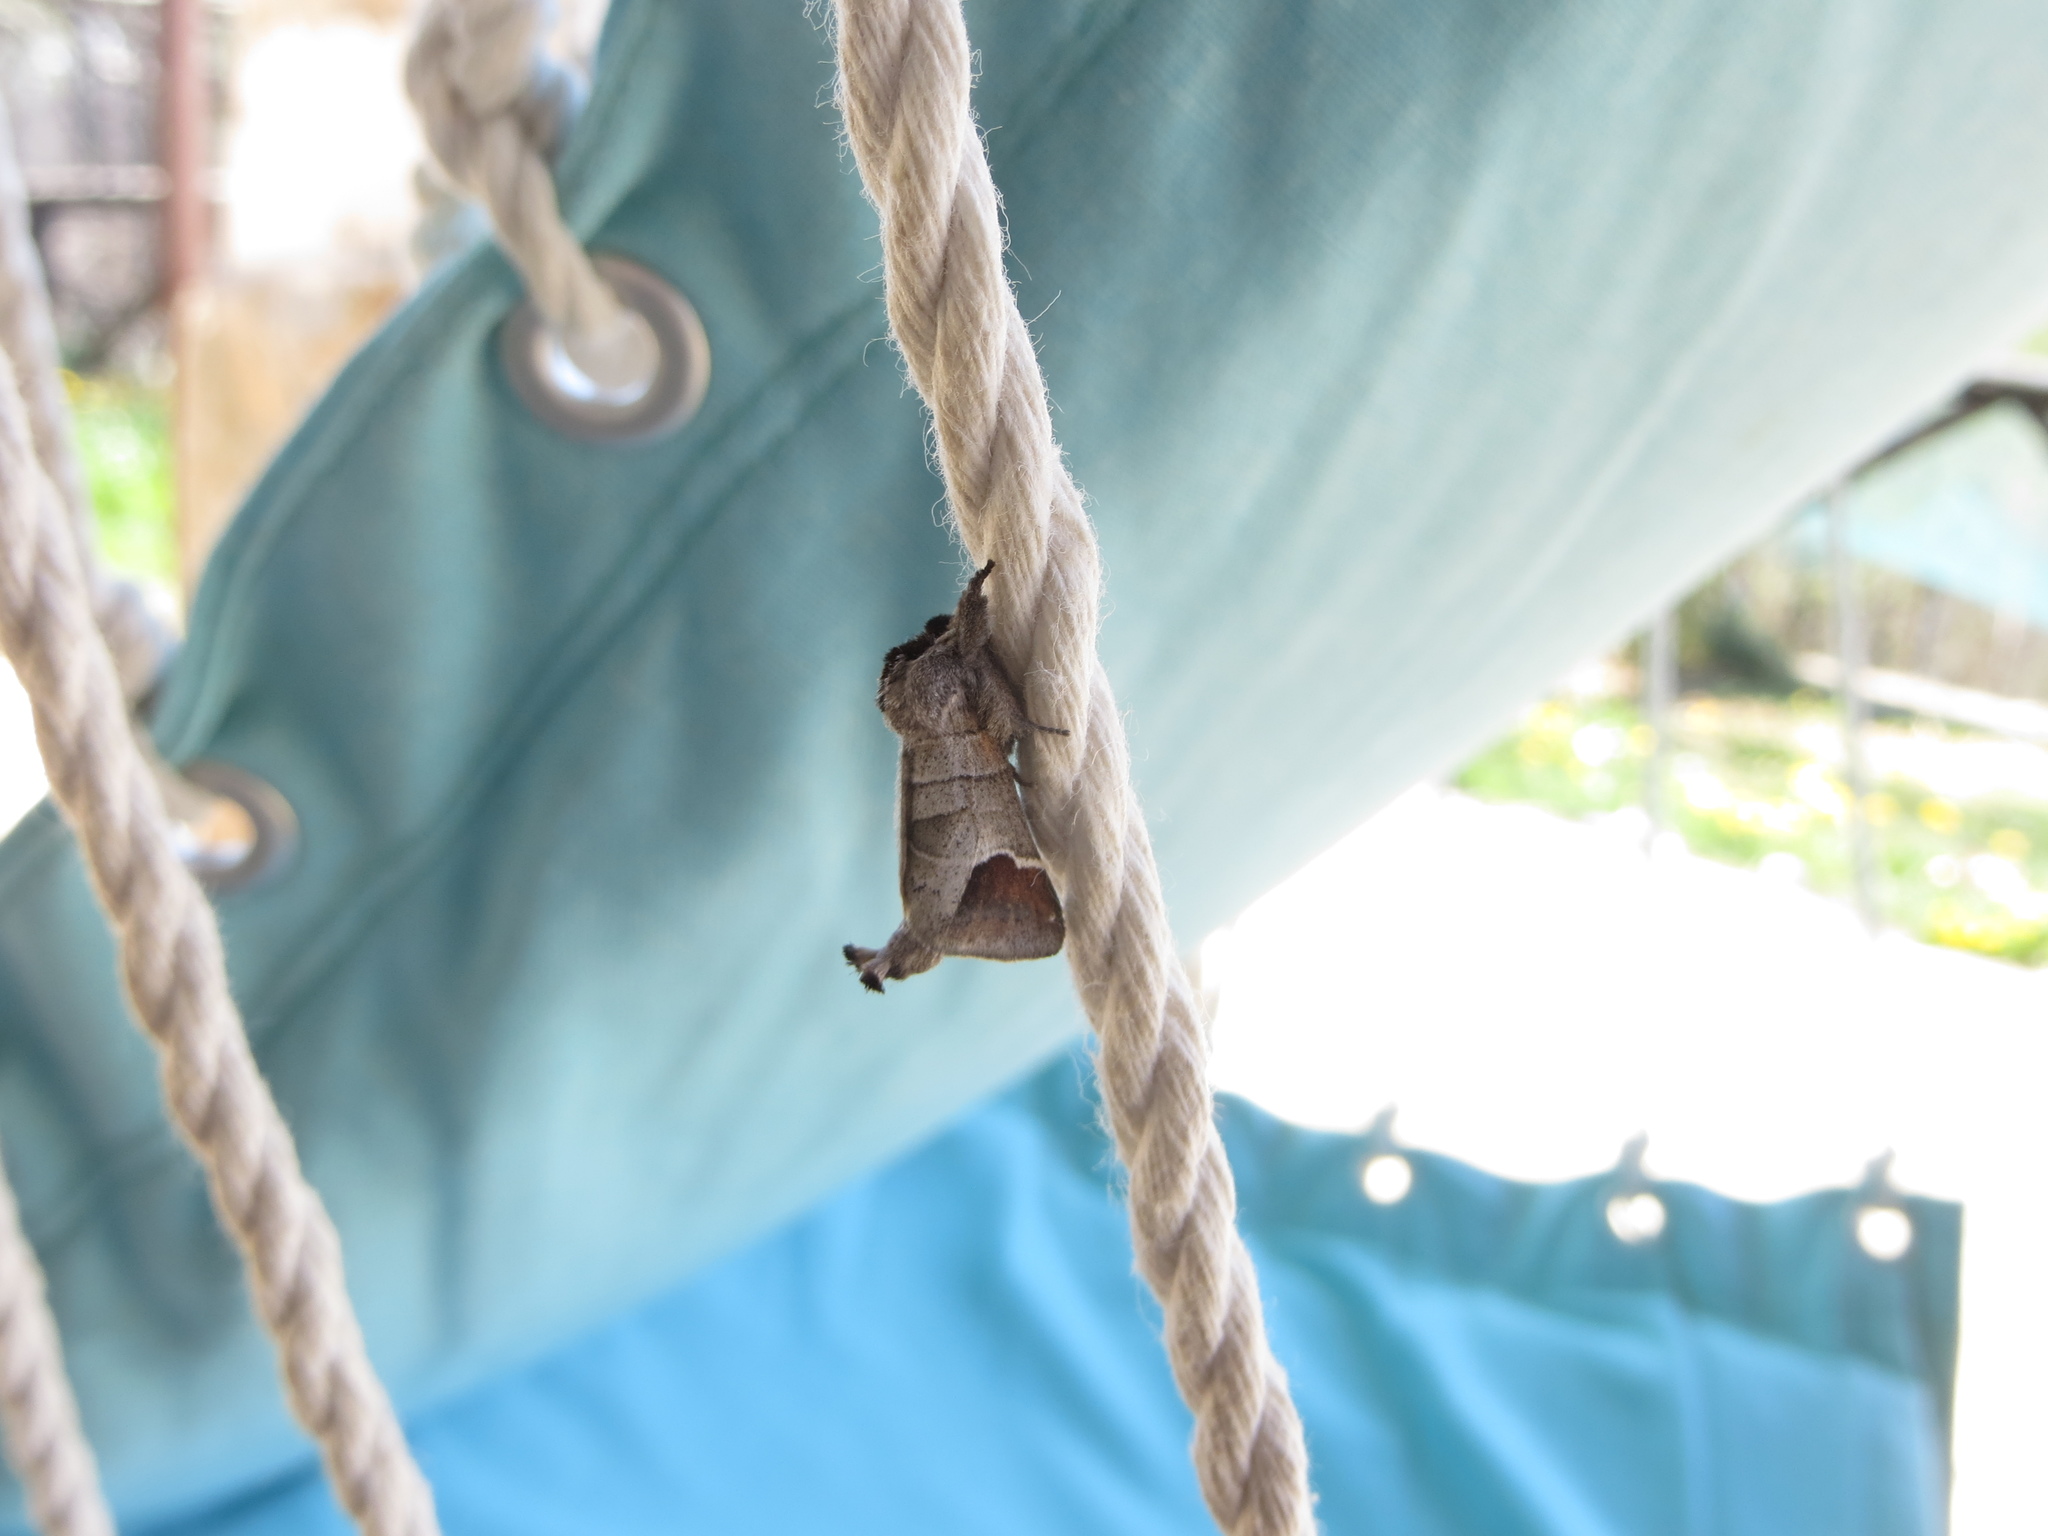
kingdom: Animalia
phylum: Arthropoda
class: Insecta
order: Lepidoptera
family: Notodontidae
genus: Clostera
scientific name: Clostera curtula
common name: Chocolate-tip
